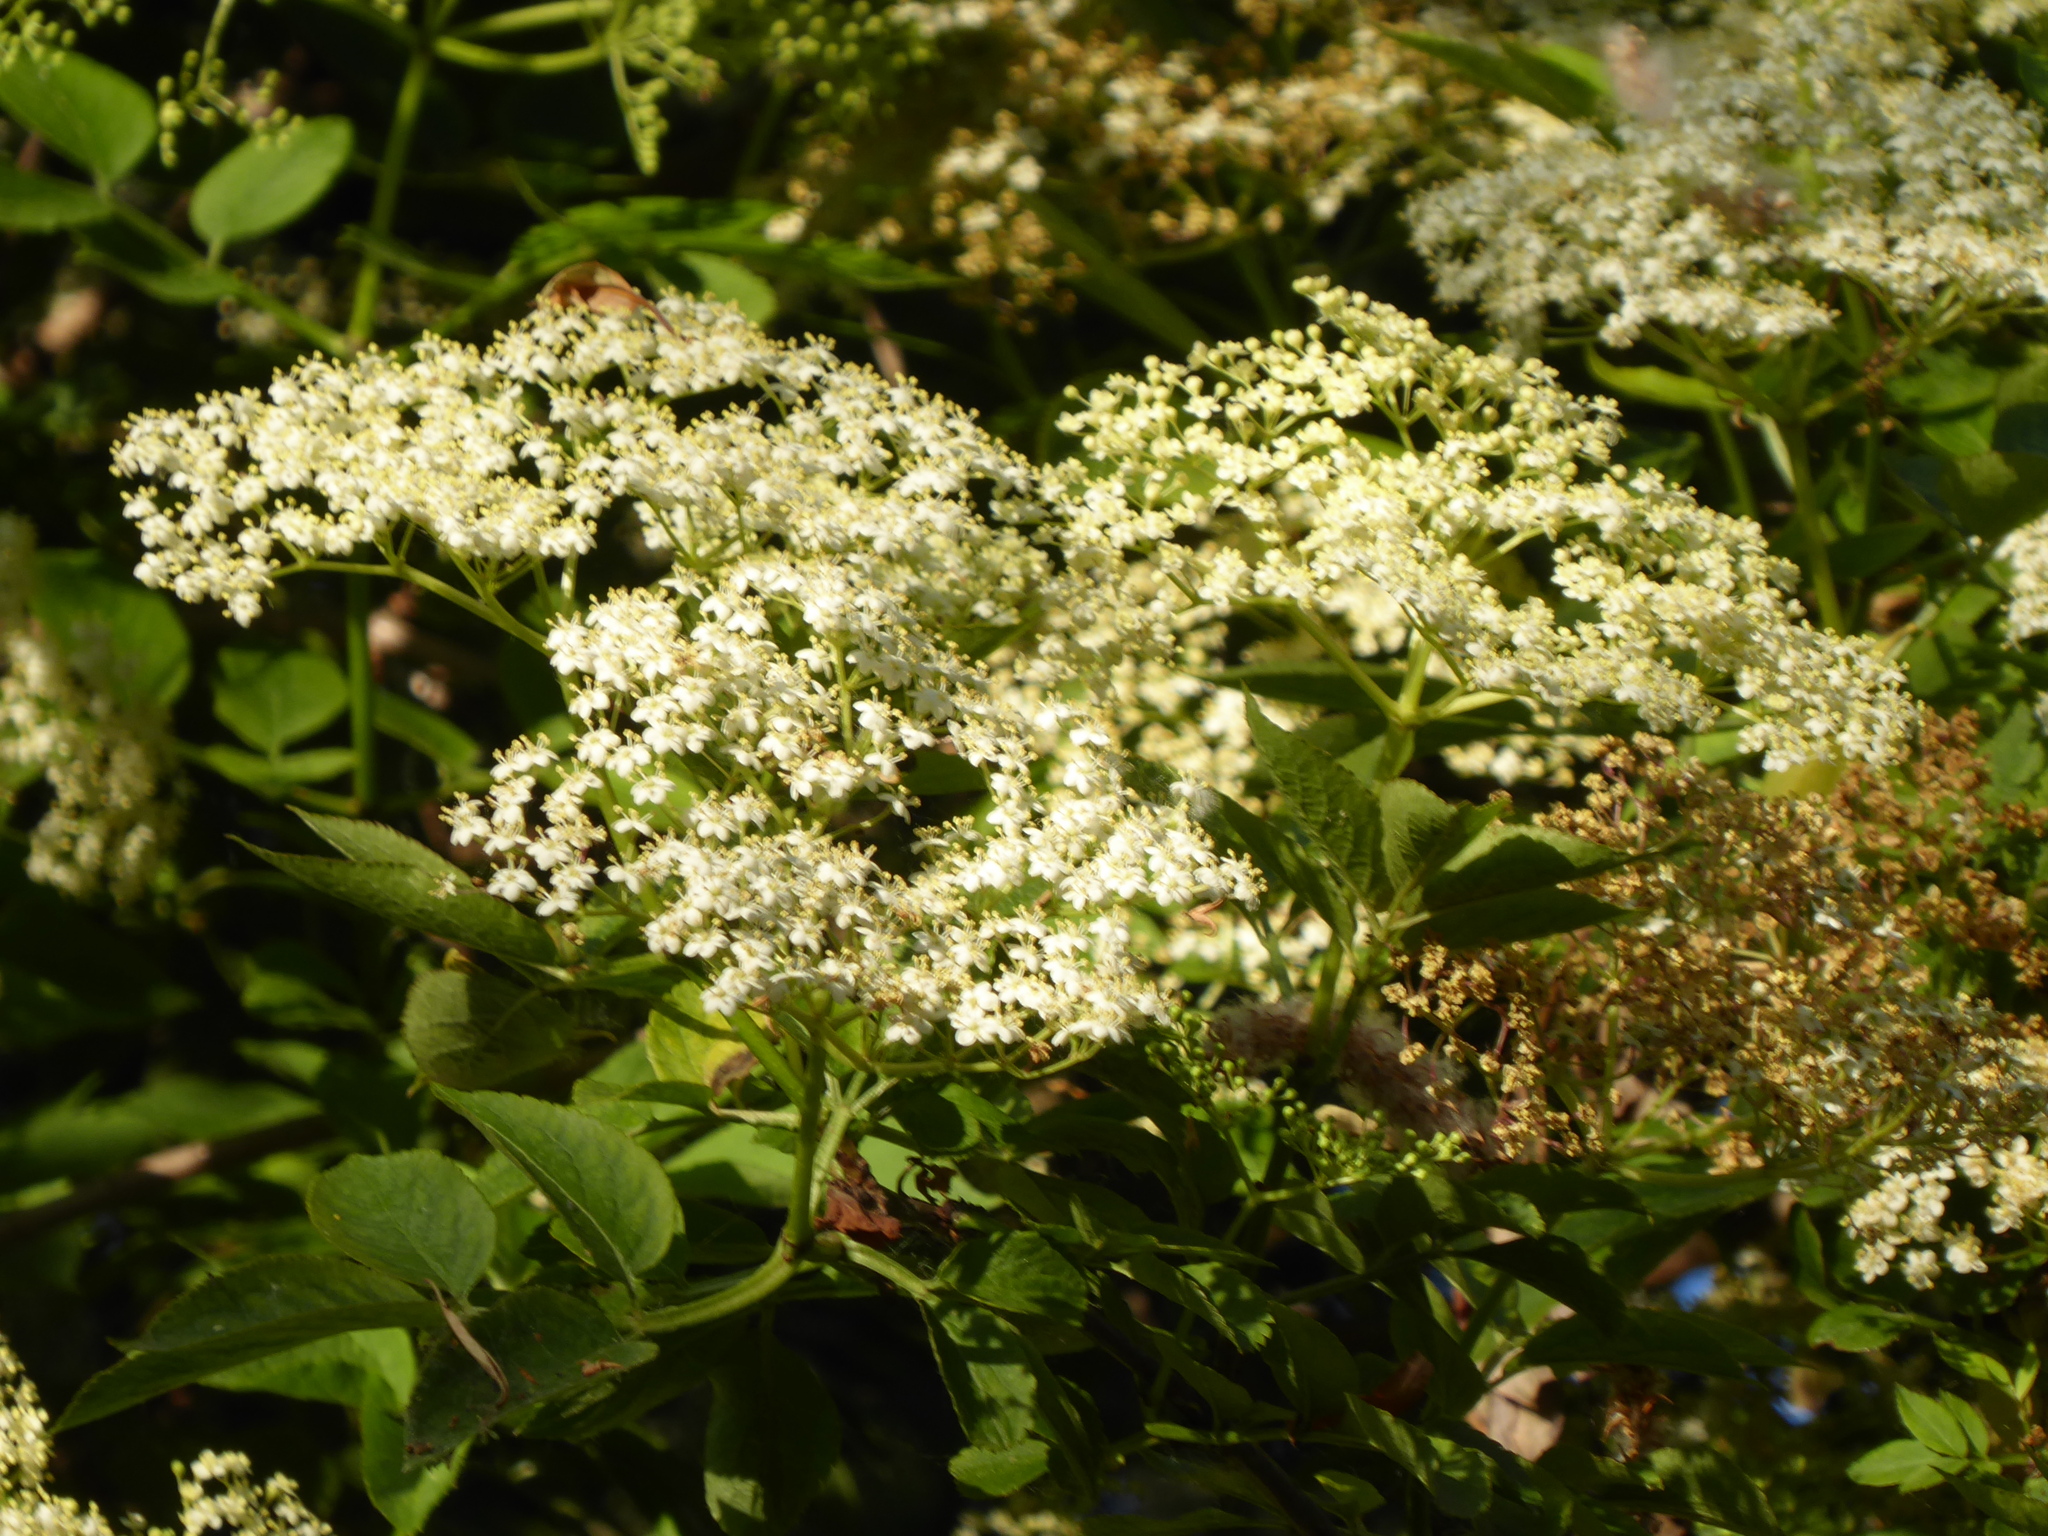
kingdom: Plantae
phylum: Tracheophyta
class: Magnoliopsida
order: Dipsacales
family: Viburnaceae
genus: Sambucus
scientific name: Sambucus nigra
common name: Elder
